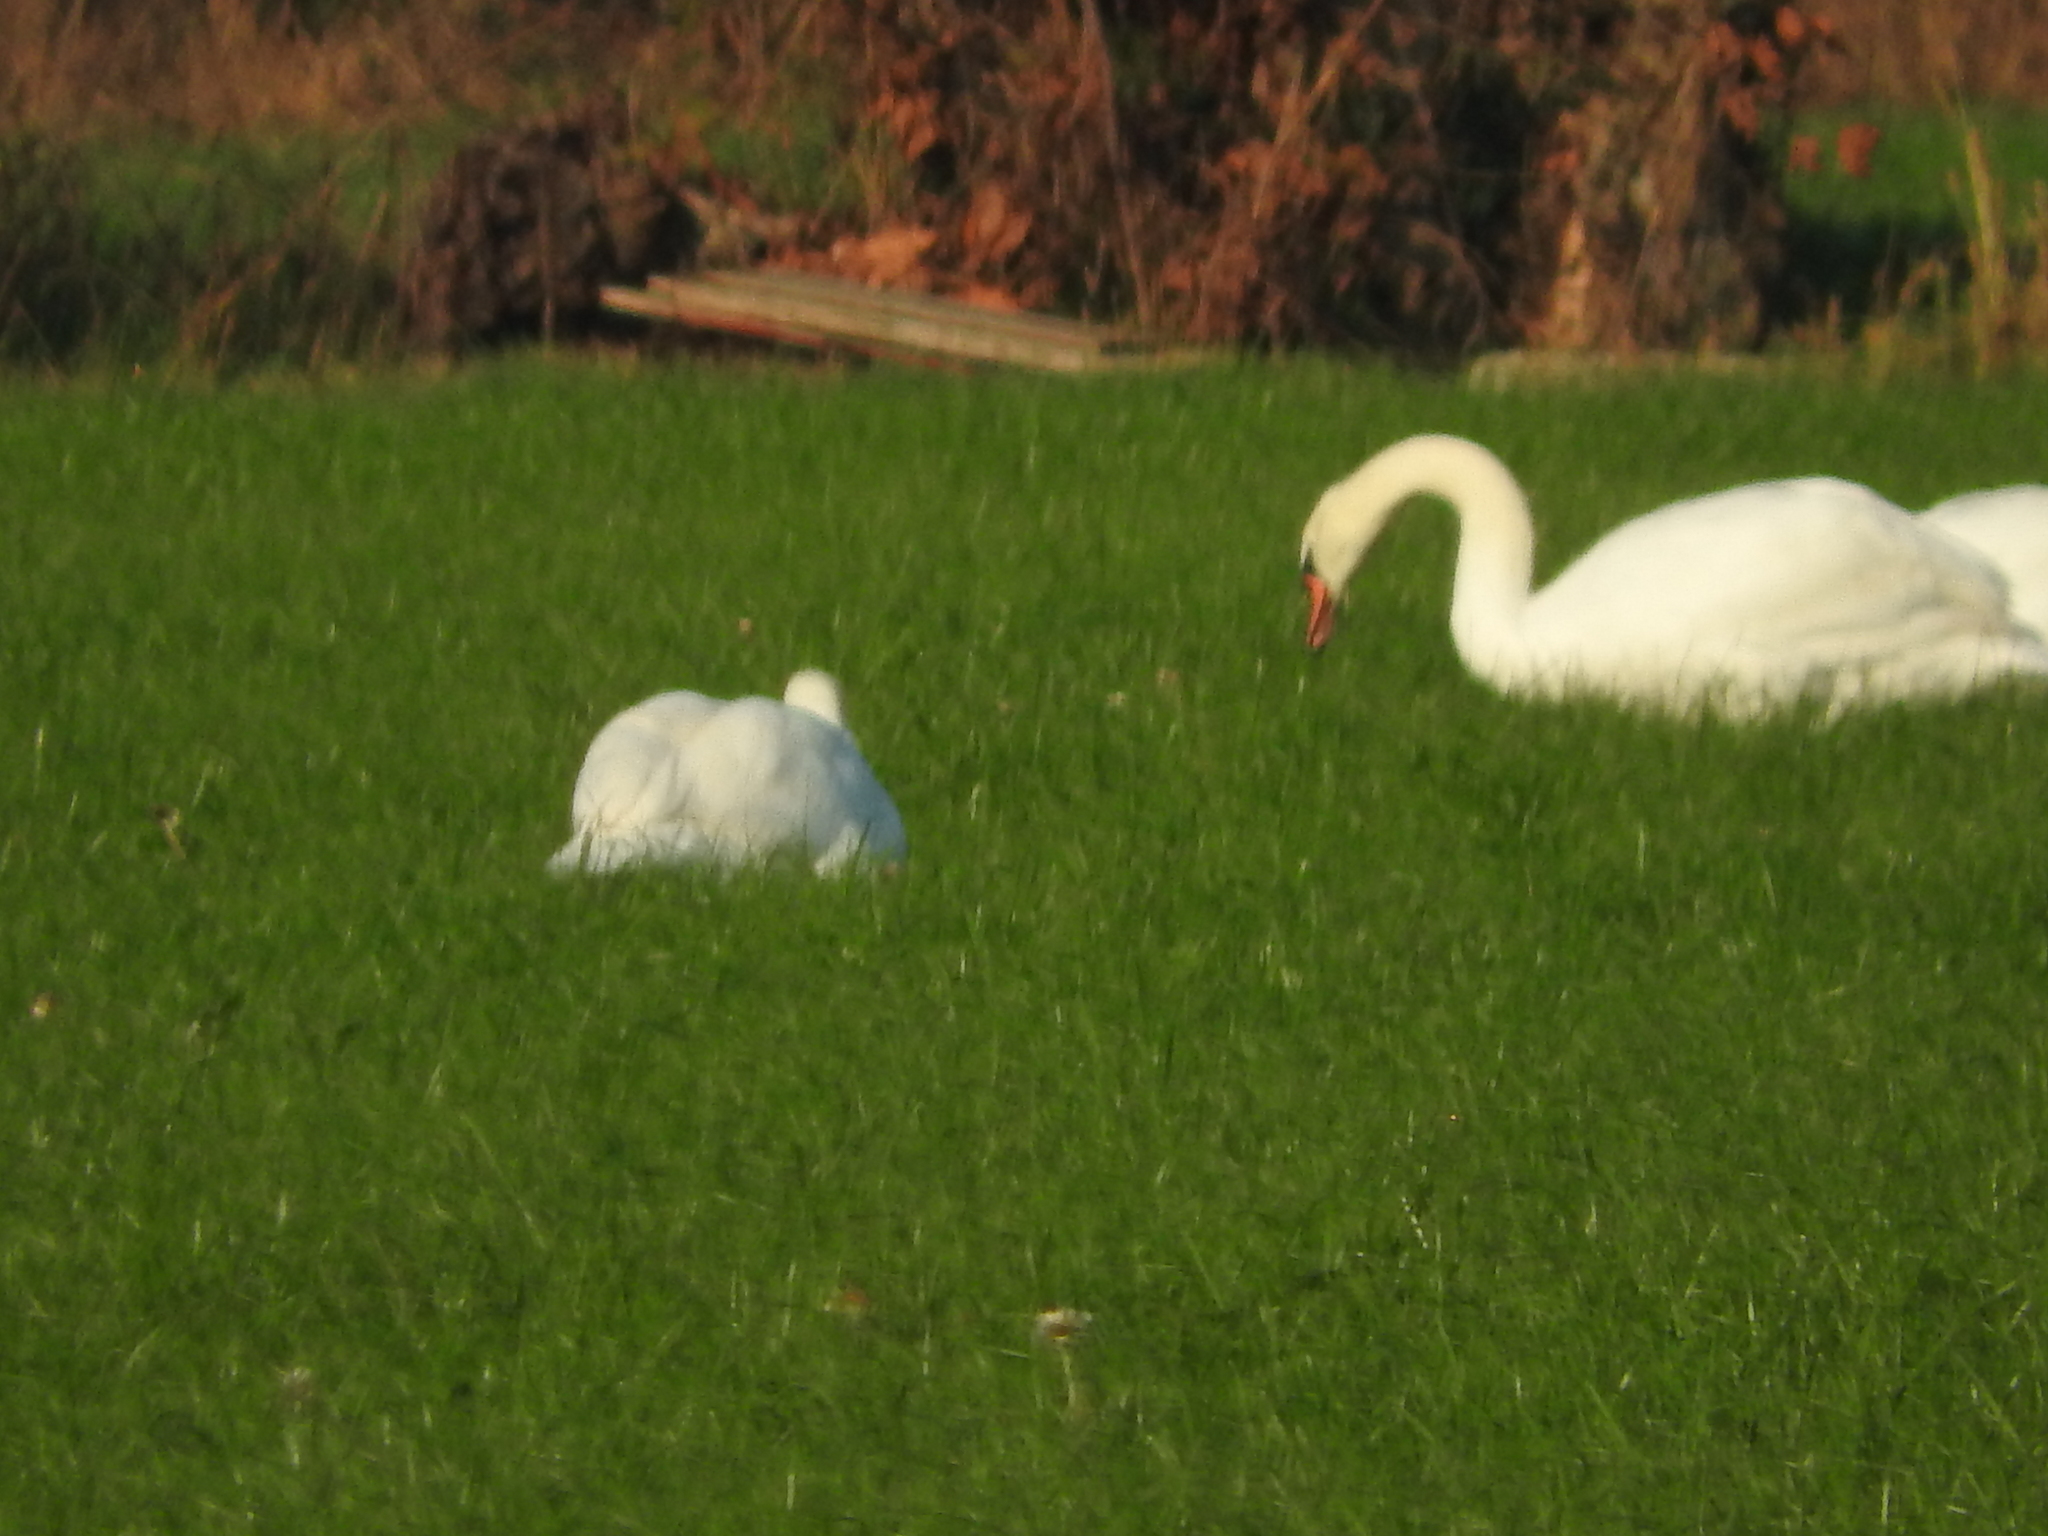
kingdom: Animalia
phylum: Chordata
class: Aves
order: Anseriformes
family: Anatidae
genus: Cygnus
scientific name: Cygnus olor
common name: Mute swan
